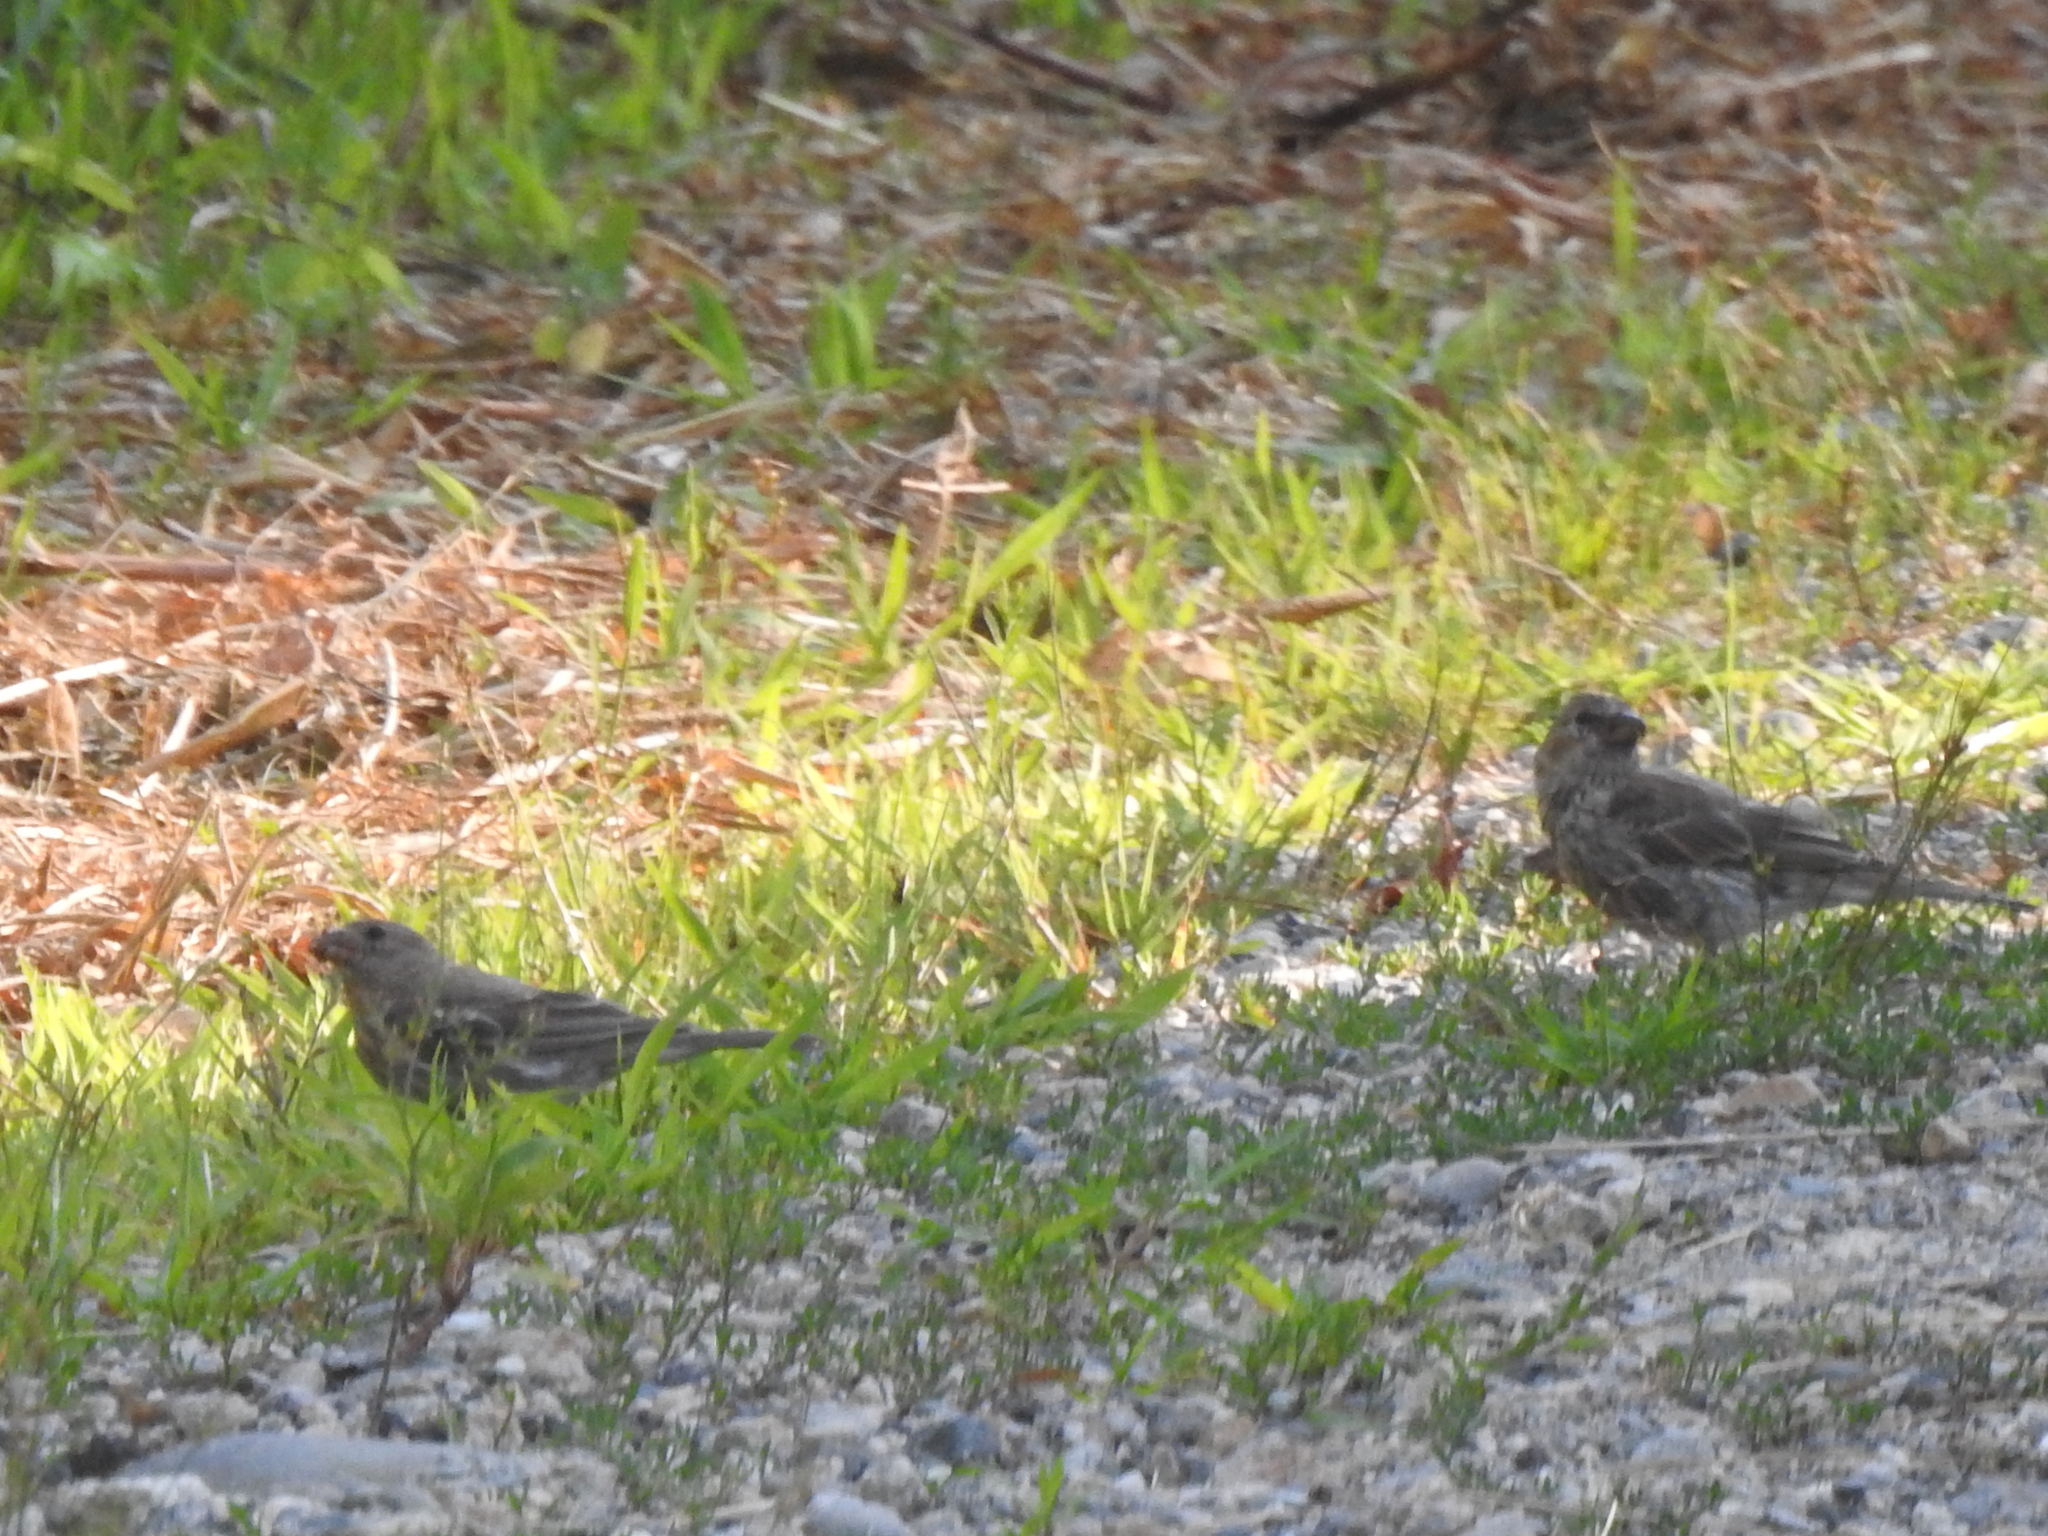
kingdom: Animalia
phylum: Chordata
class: Aves
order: Passeriformes
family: Fringillidae
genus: Haemorhous
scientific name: Haemorhous mexicanus
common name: House finch
